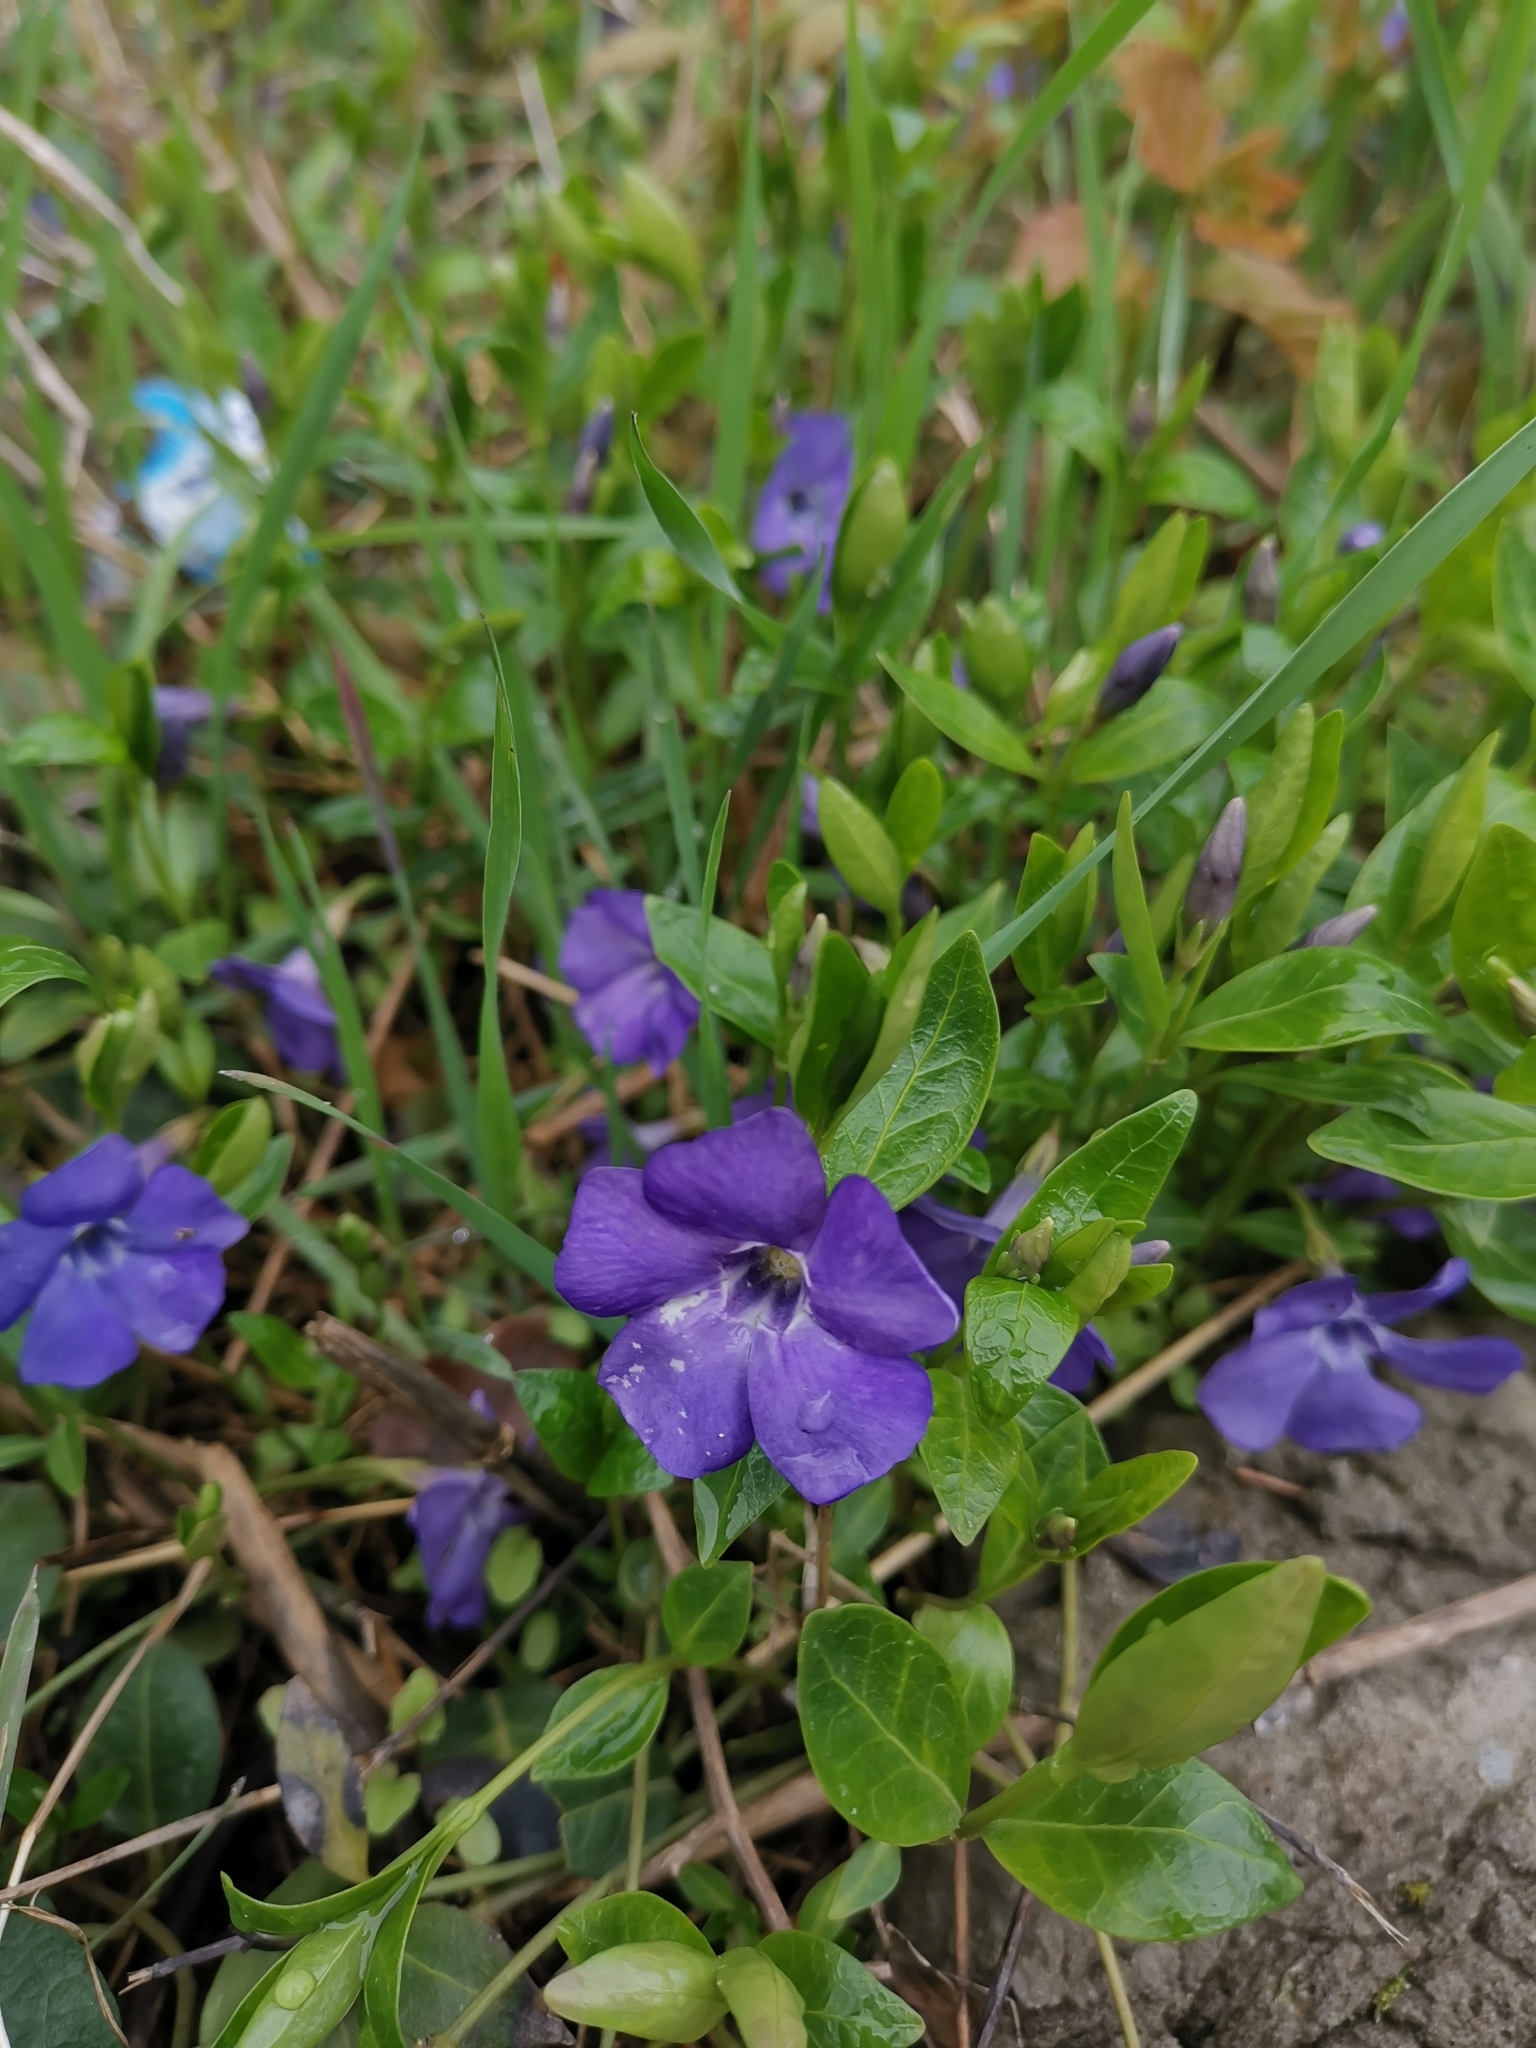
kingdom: Plantae
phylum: Tracheophyta
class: Magnoliopsida
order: Gentianales
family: Apocynaceae
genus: Vinca
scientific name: Vinca minor
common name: Lesser periwinkle
